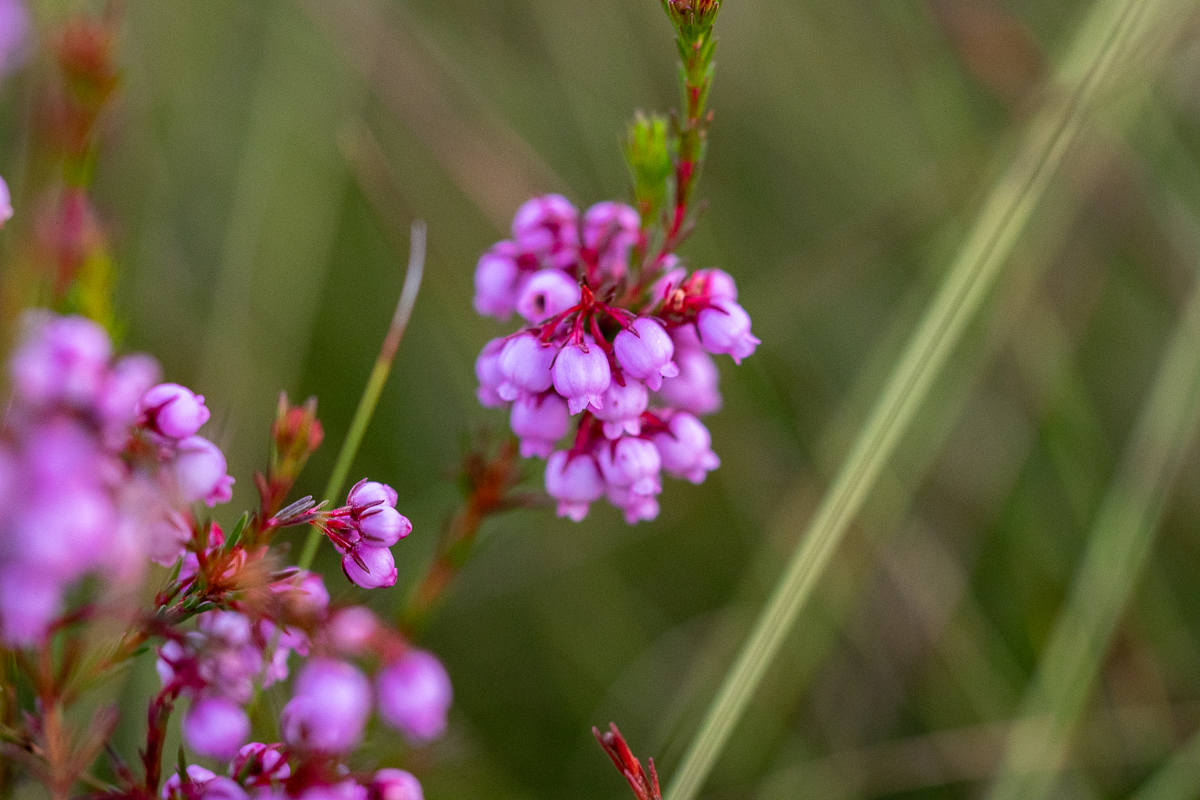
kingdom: Plantae
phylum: Tracheophyta
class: Magnoliopsida
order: Ericales
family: Ericaceae
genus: Erica
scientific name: Erica laeta
